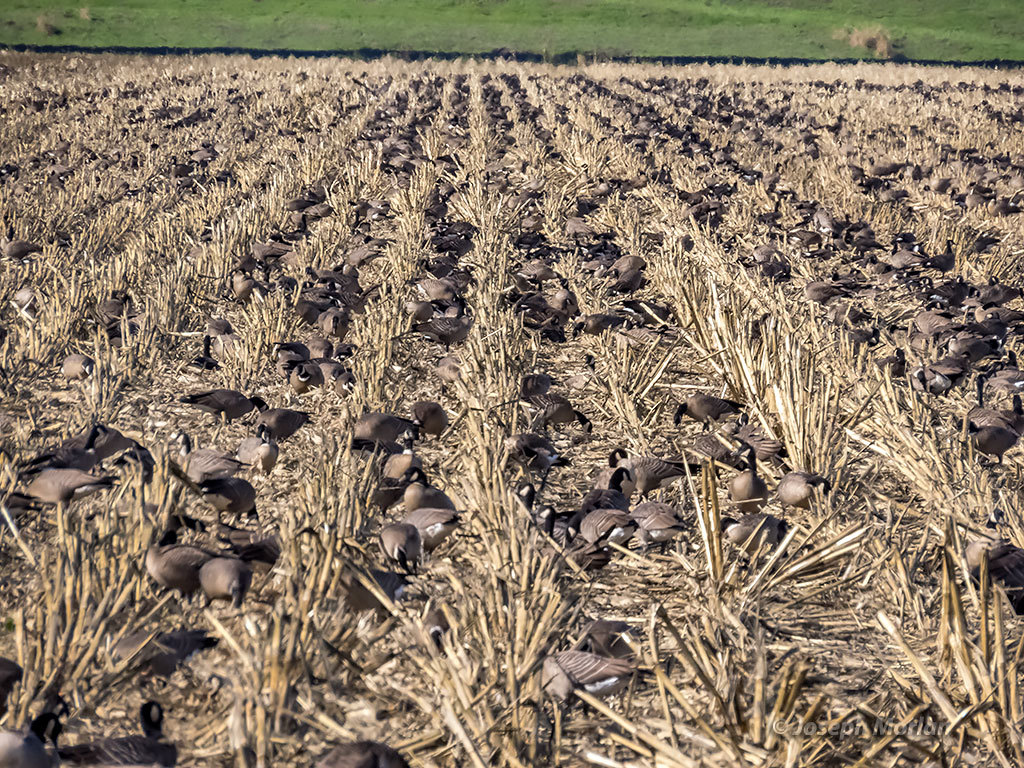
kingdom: Animalia
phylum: Chordata
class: Aves
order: Anseriformes
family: Anatidae
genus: Branta
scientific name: Branta hutchinsii
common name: Cackling goose
